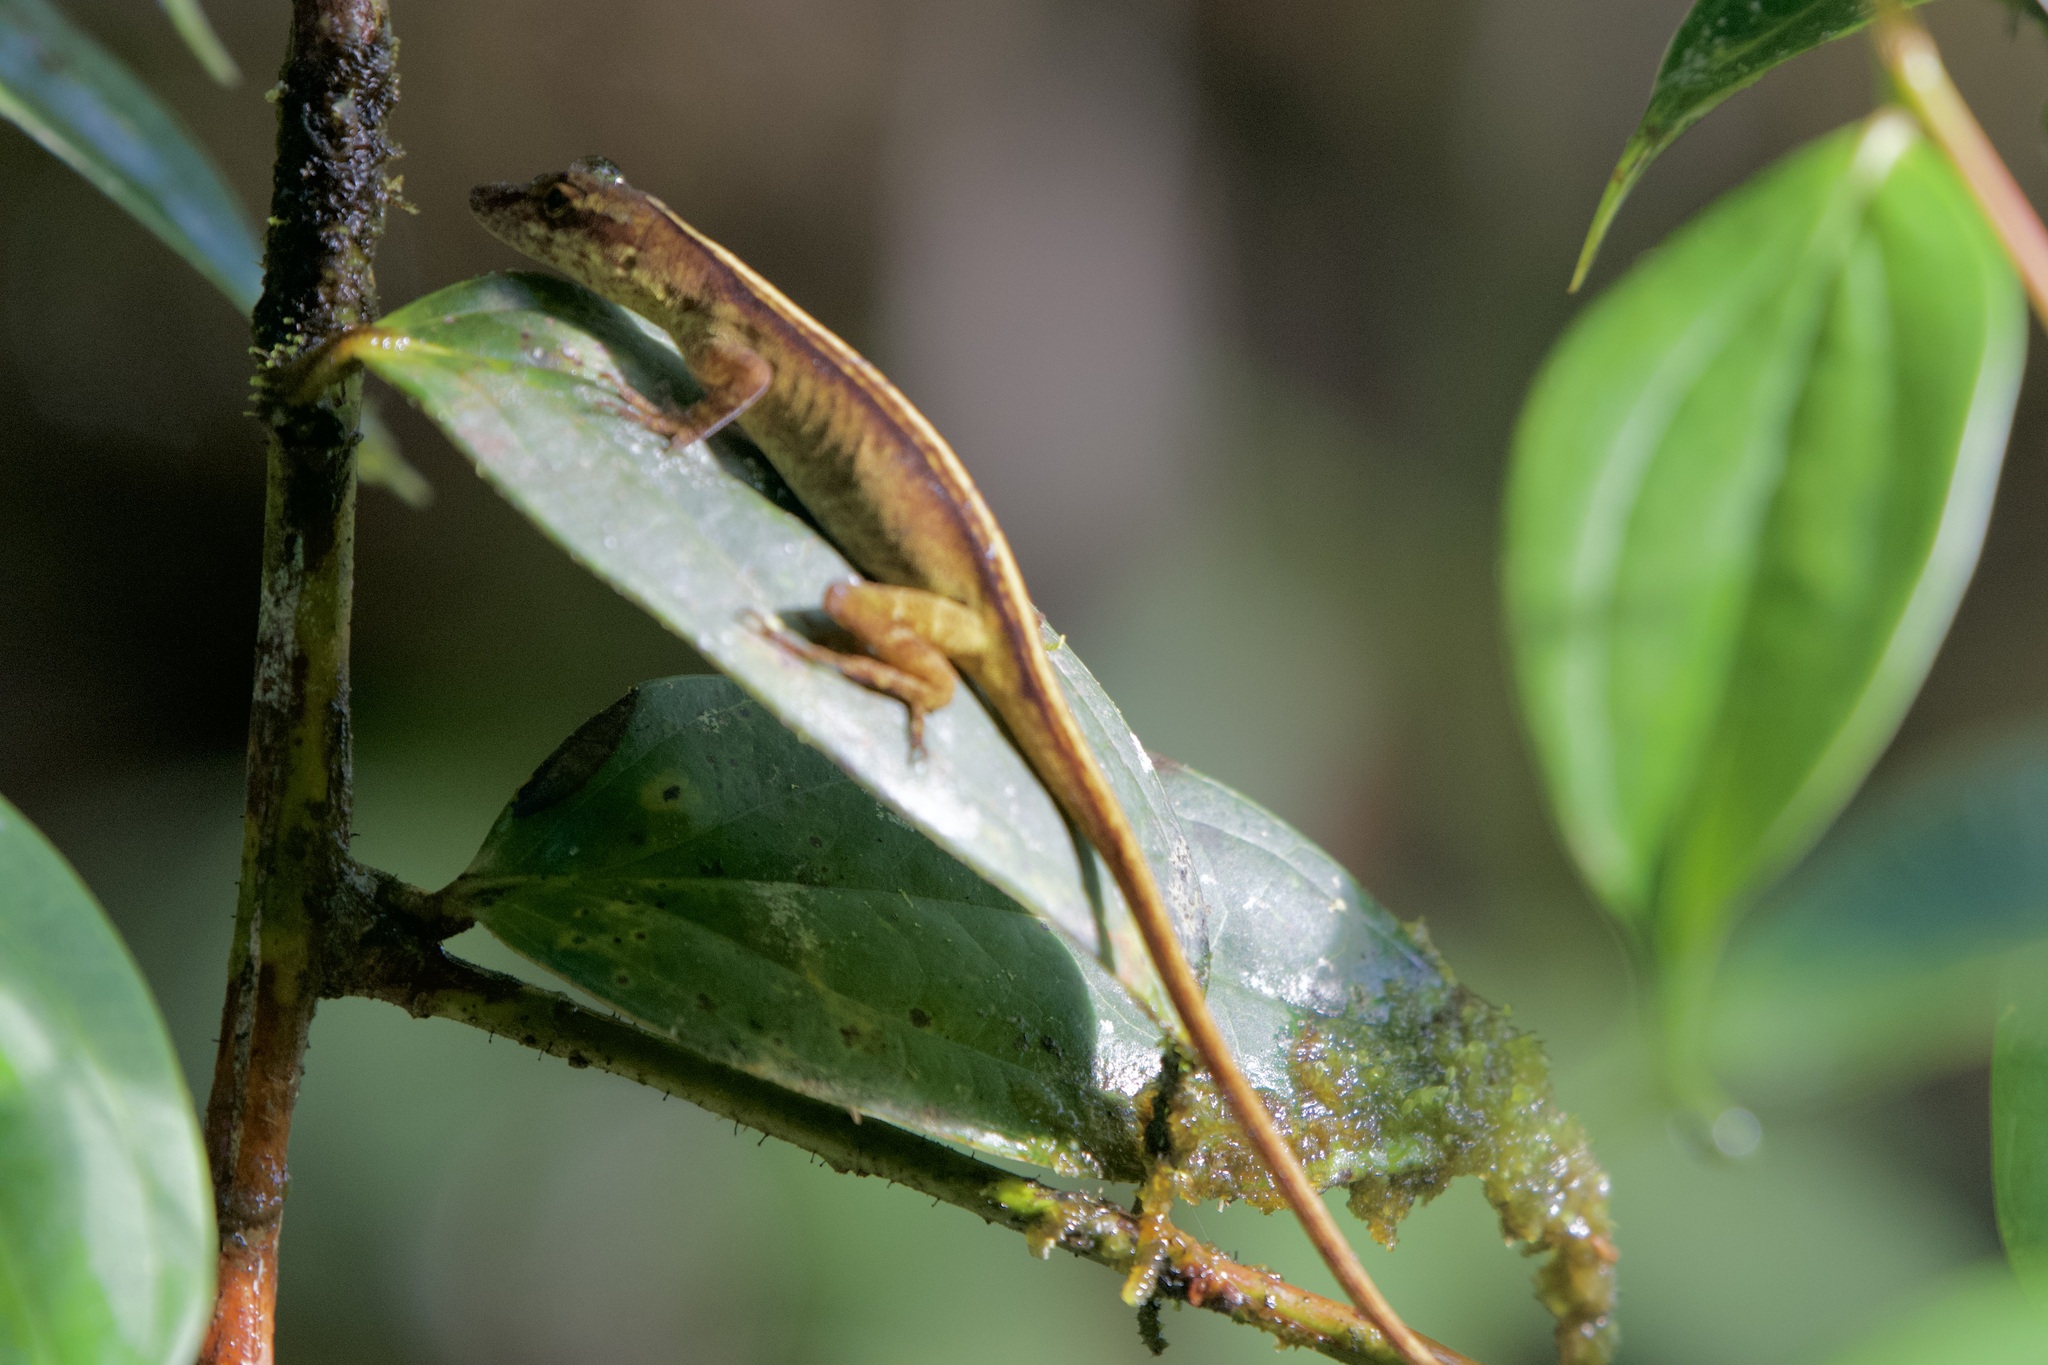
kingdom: Animalia
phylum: Chordata
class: Squamata
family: Dactyloidae
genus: Anolis
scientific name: Anolis maculiventris
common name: Blotchbelly anole
